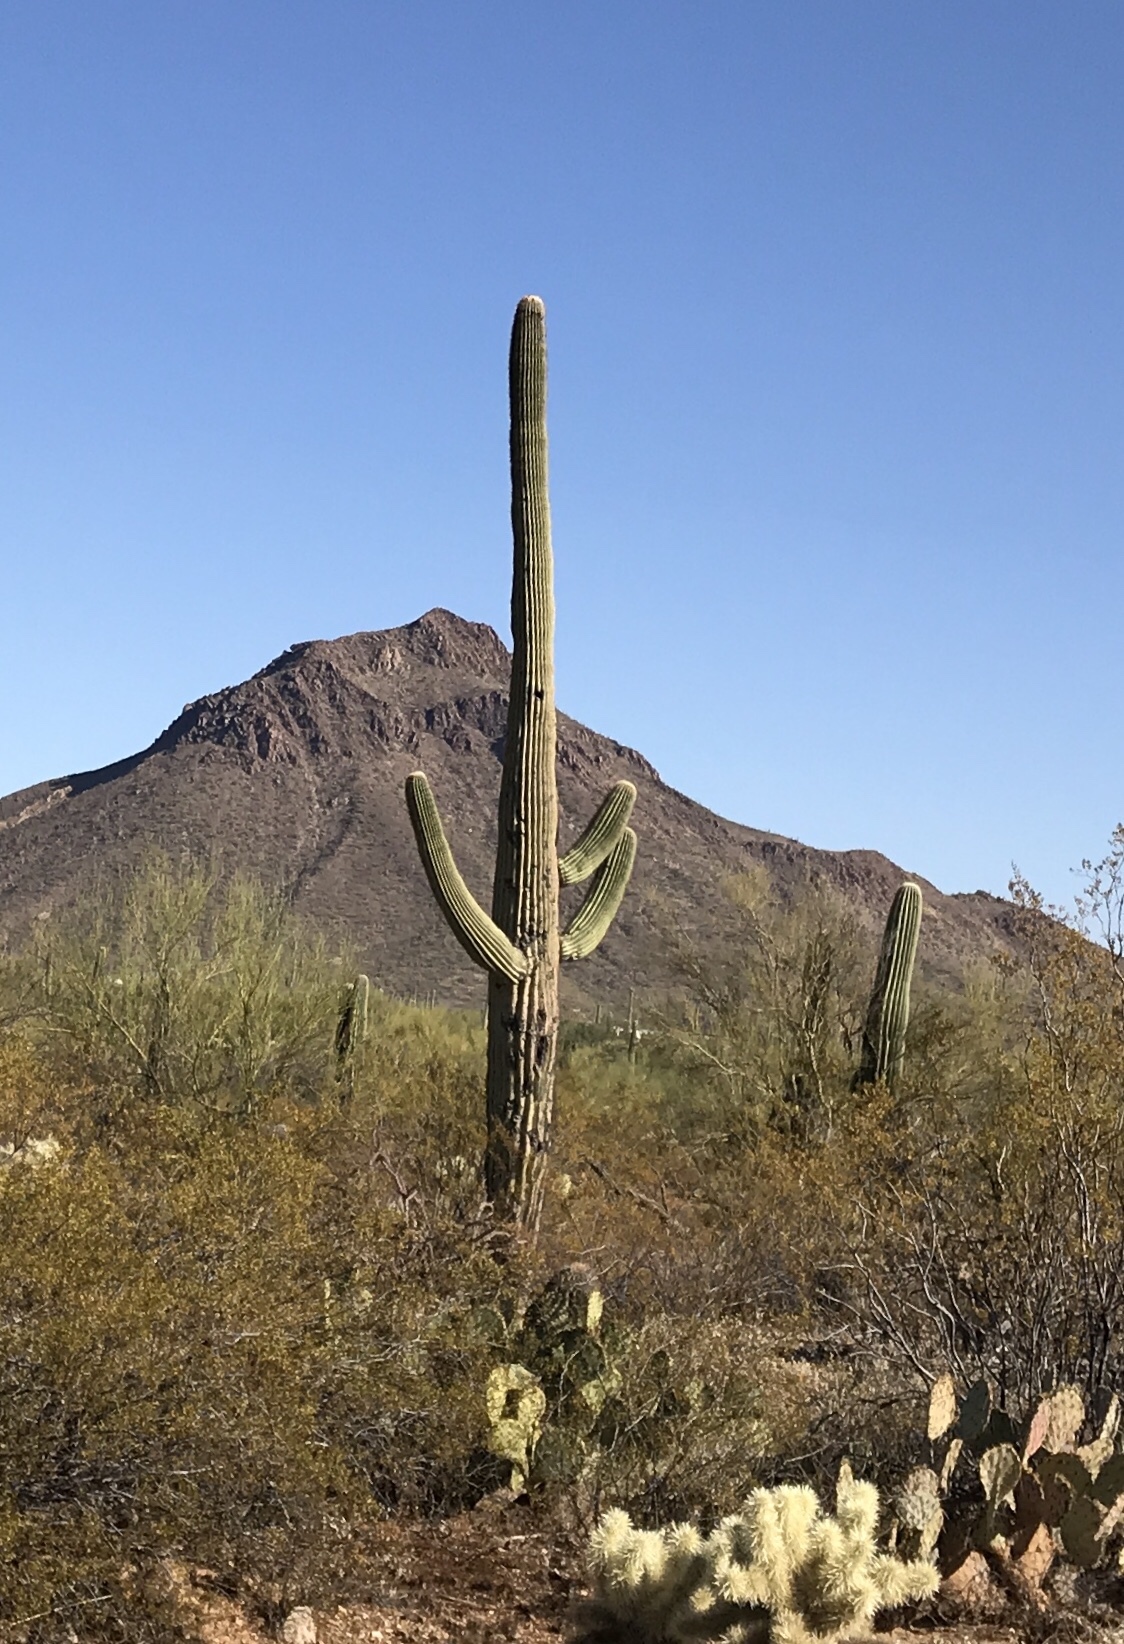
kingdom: Plantae
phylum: Tracheophyta
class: Magnoliopsida
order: Caryophyllales
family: Cactaceae
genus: Carnegiea
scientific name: Carnegiea gigantea
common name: Saguaro
